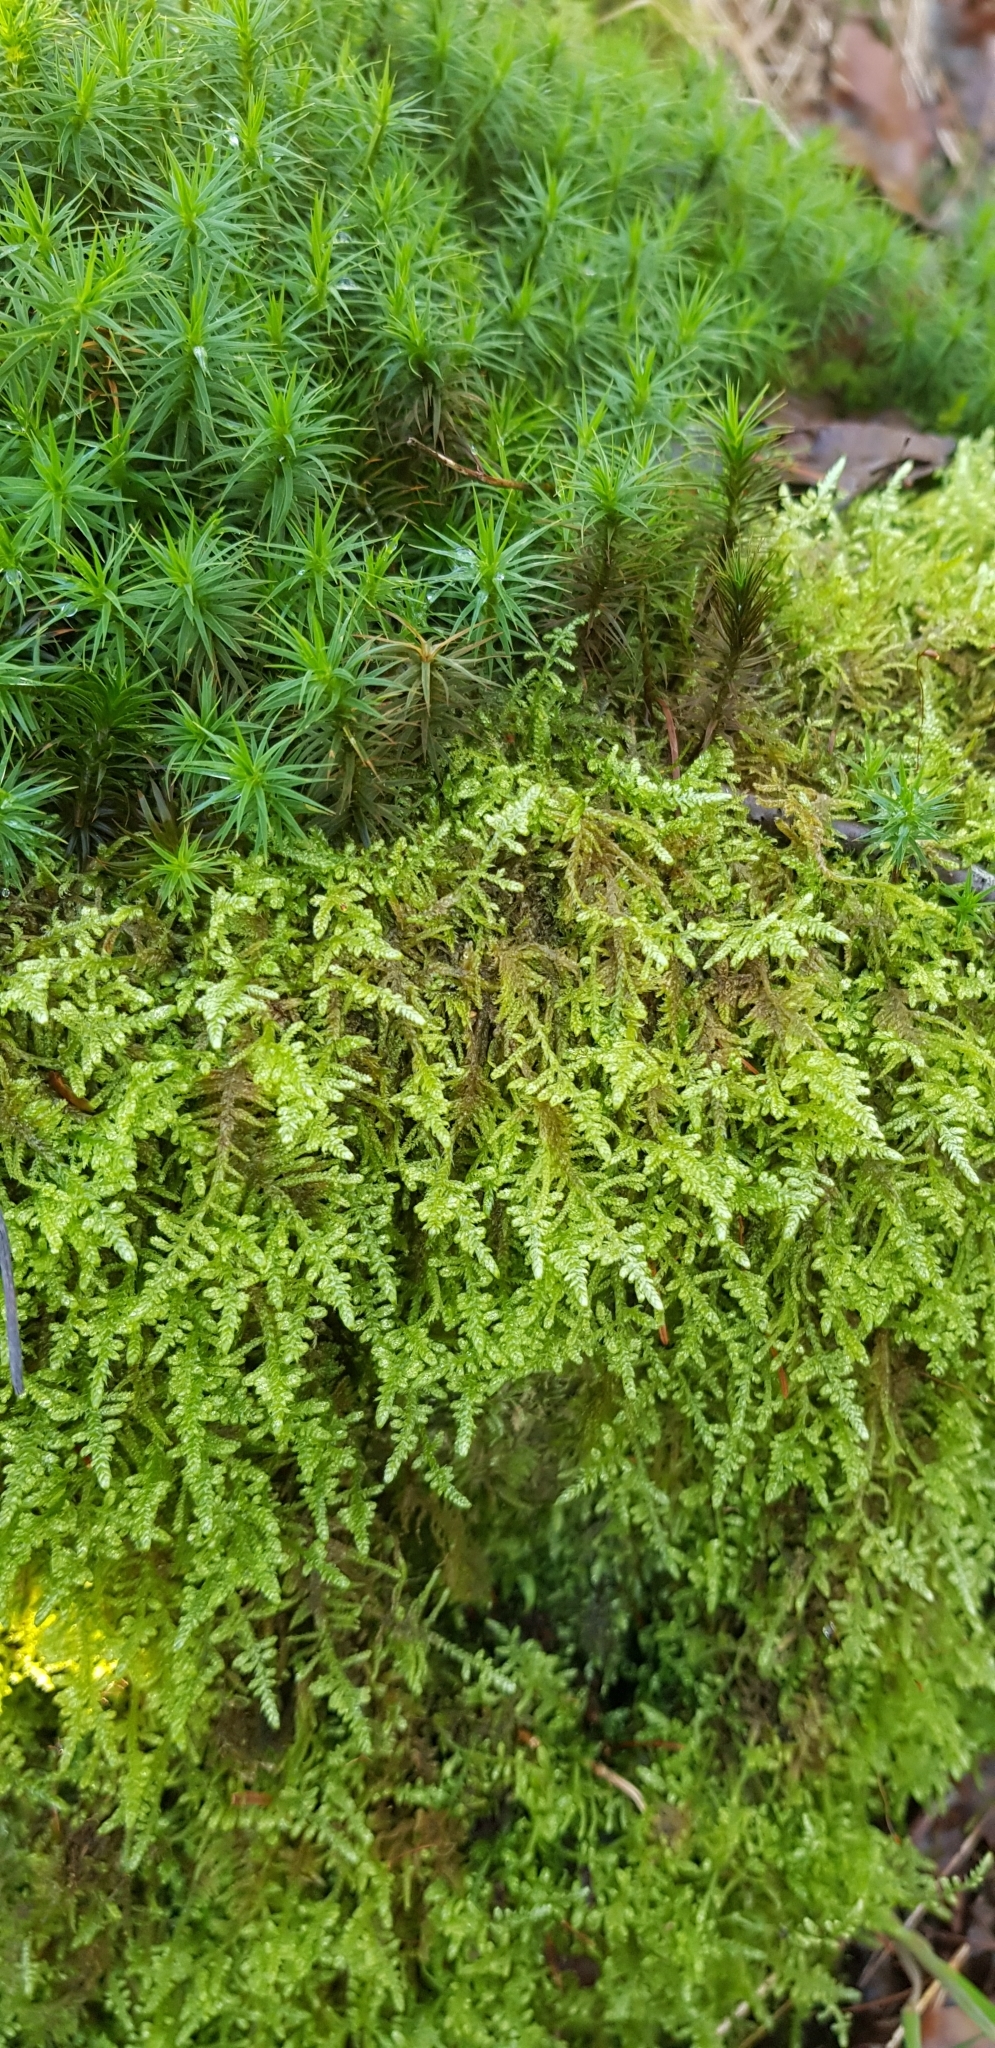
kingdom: Plantae
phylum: Bryophyta
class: Bryopsida
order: Hypnales
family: Hypnaceae
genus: Hypnum
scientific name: Hypnum jutlandicum
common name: Heath plait-moss
